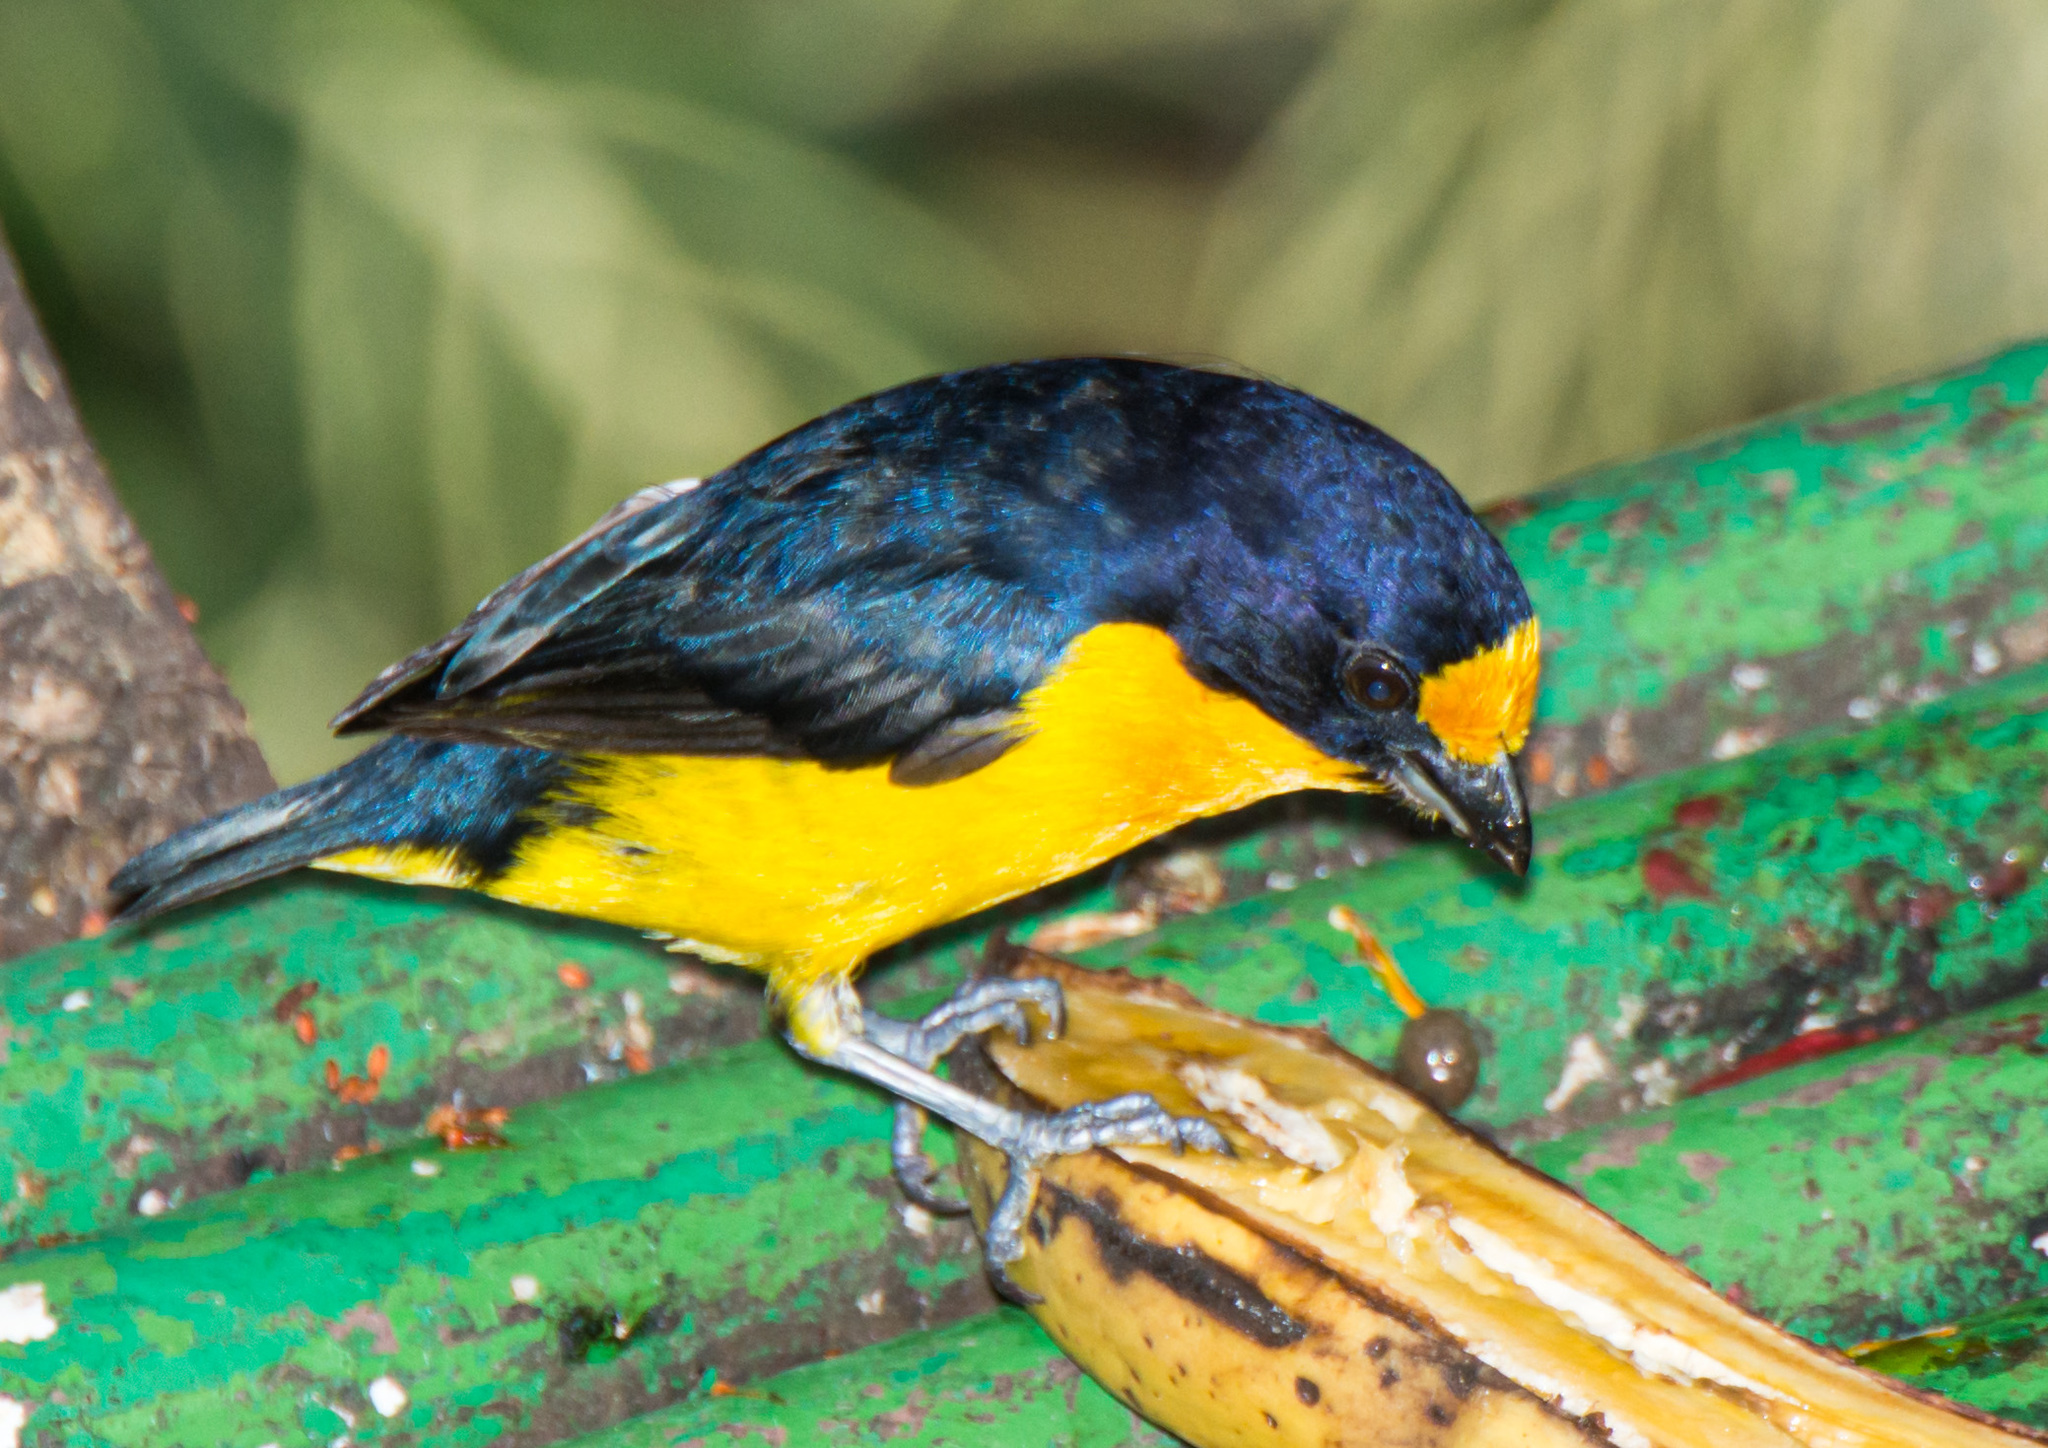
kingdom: Animalia
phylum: Chordata
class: Aves
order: Passeriformes
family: Fringillidae
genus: Euphonia
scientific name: Euphonia violacea
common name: Violaceous euphonia
